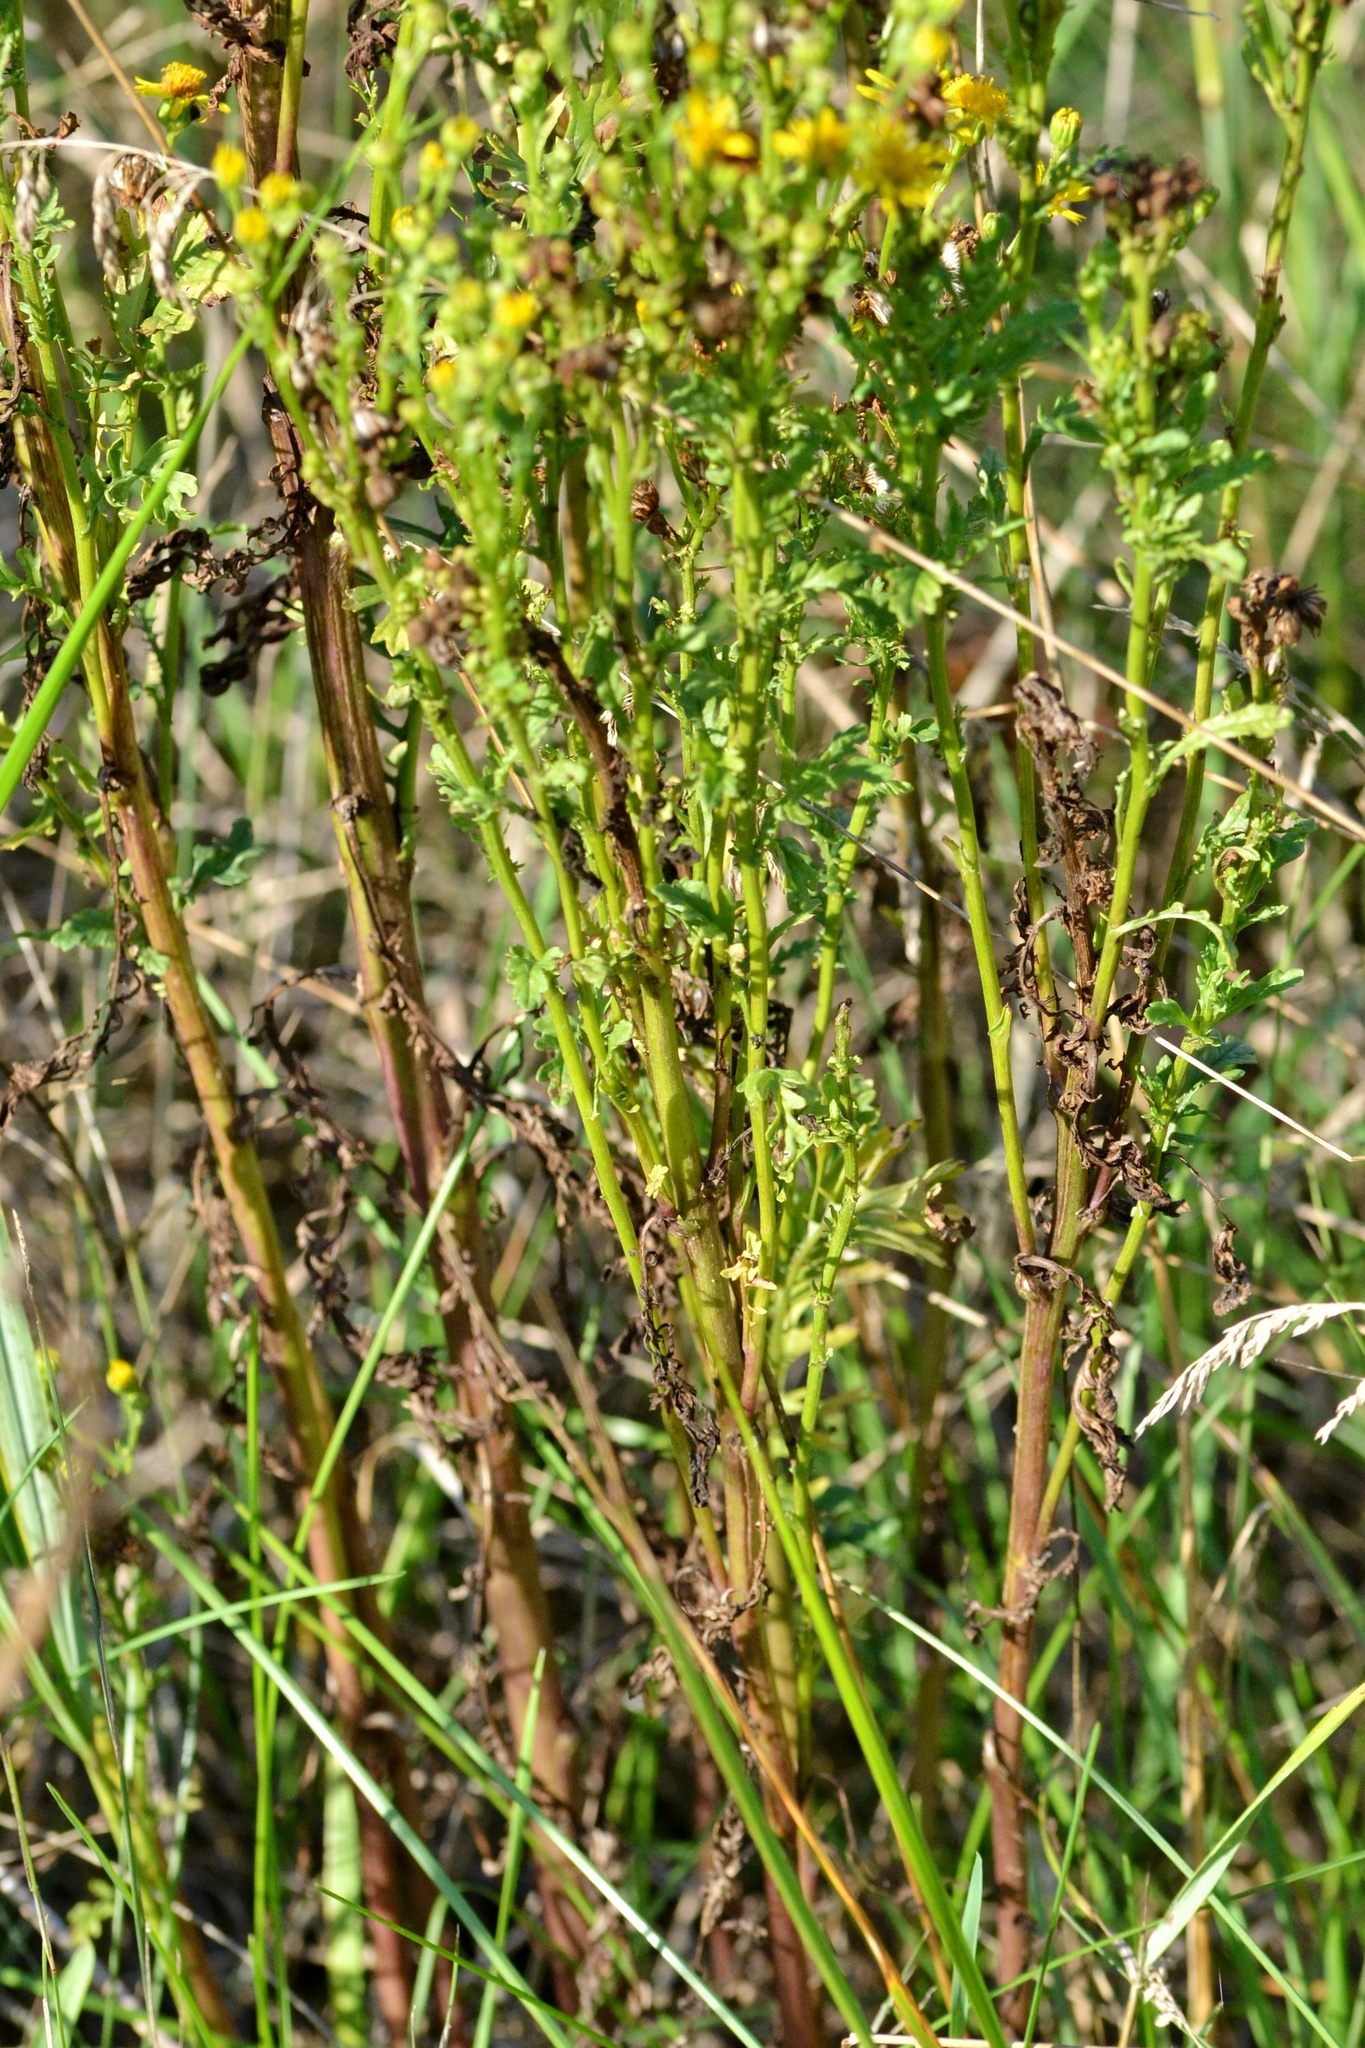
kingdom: Plantae
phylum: Tracheophyta
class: Magnoliopsida
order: Asterales
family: Asteraceae
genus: Jacobaea
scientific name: Jacobaea vulgaris
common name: Stinking willie
